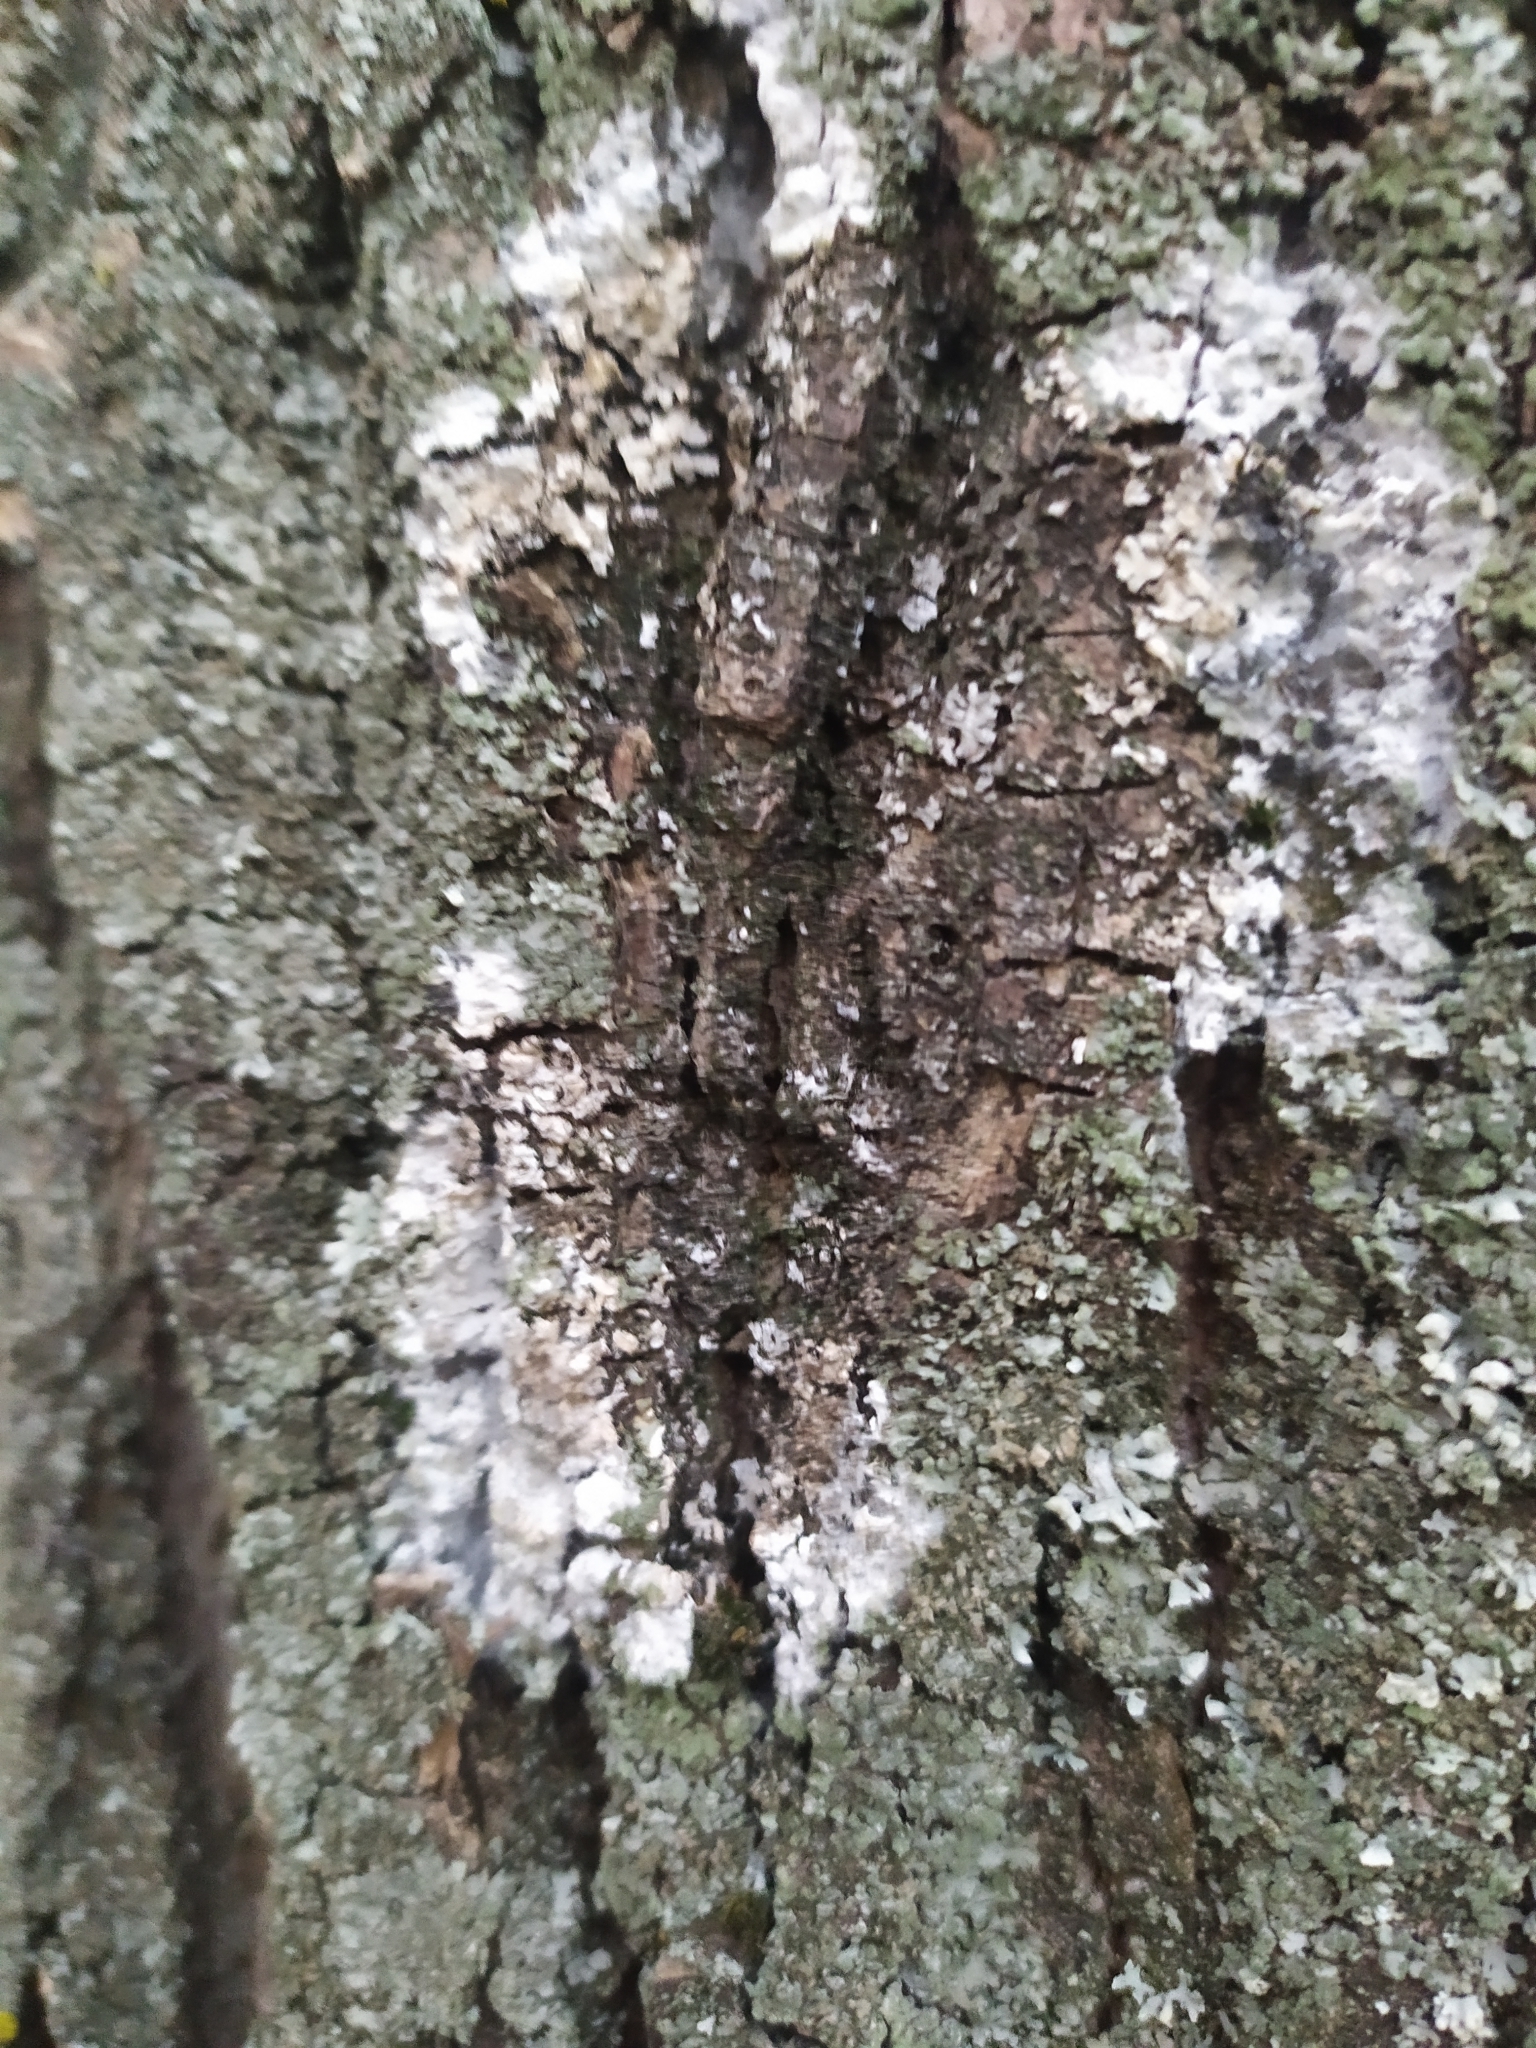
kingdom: Fungi
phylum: Basidiomycota
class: Agaricomycetes
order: Atheliales
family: Atheliaceae
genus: Athelia
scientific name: Athelia arachnoidea
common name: Candelabra duster
